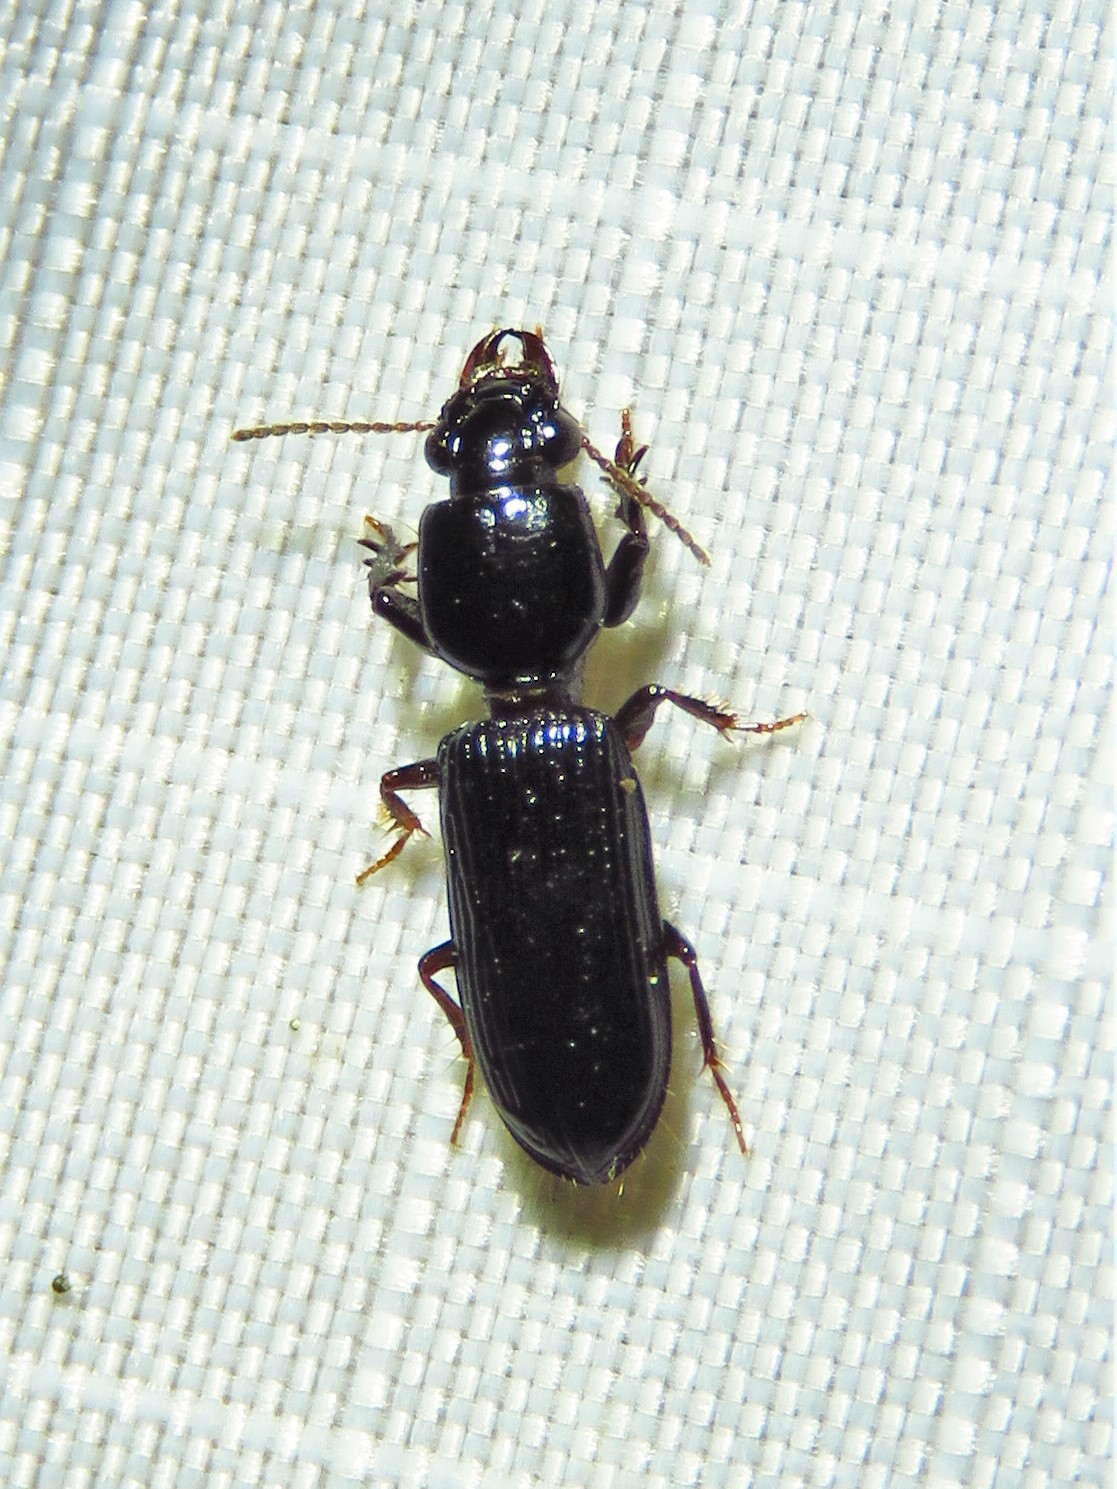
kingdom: Animalia
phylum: Arthropoda
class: Insecta
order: Coleoptera
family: Carabidae
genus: Semiclivina
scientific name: Semiclivina dentipes
